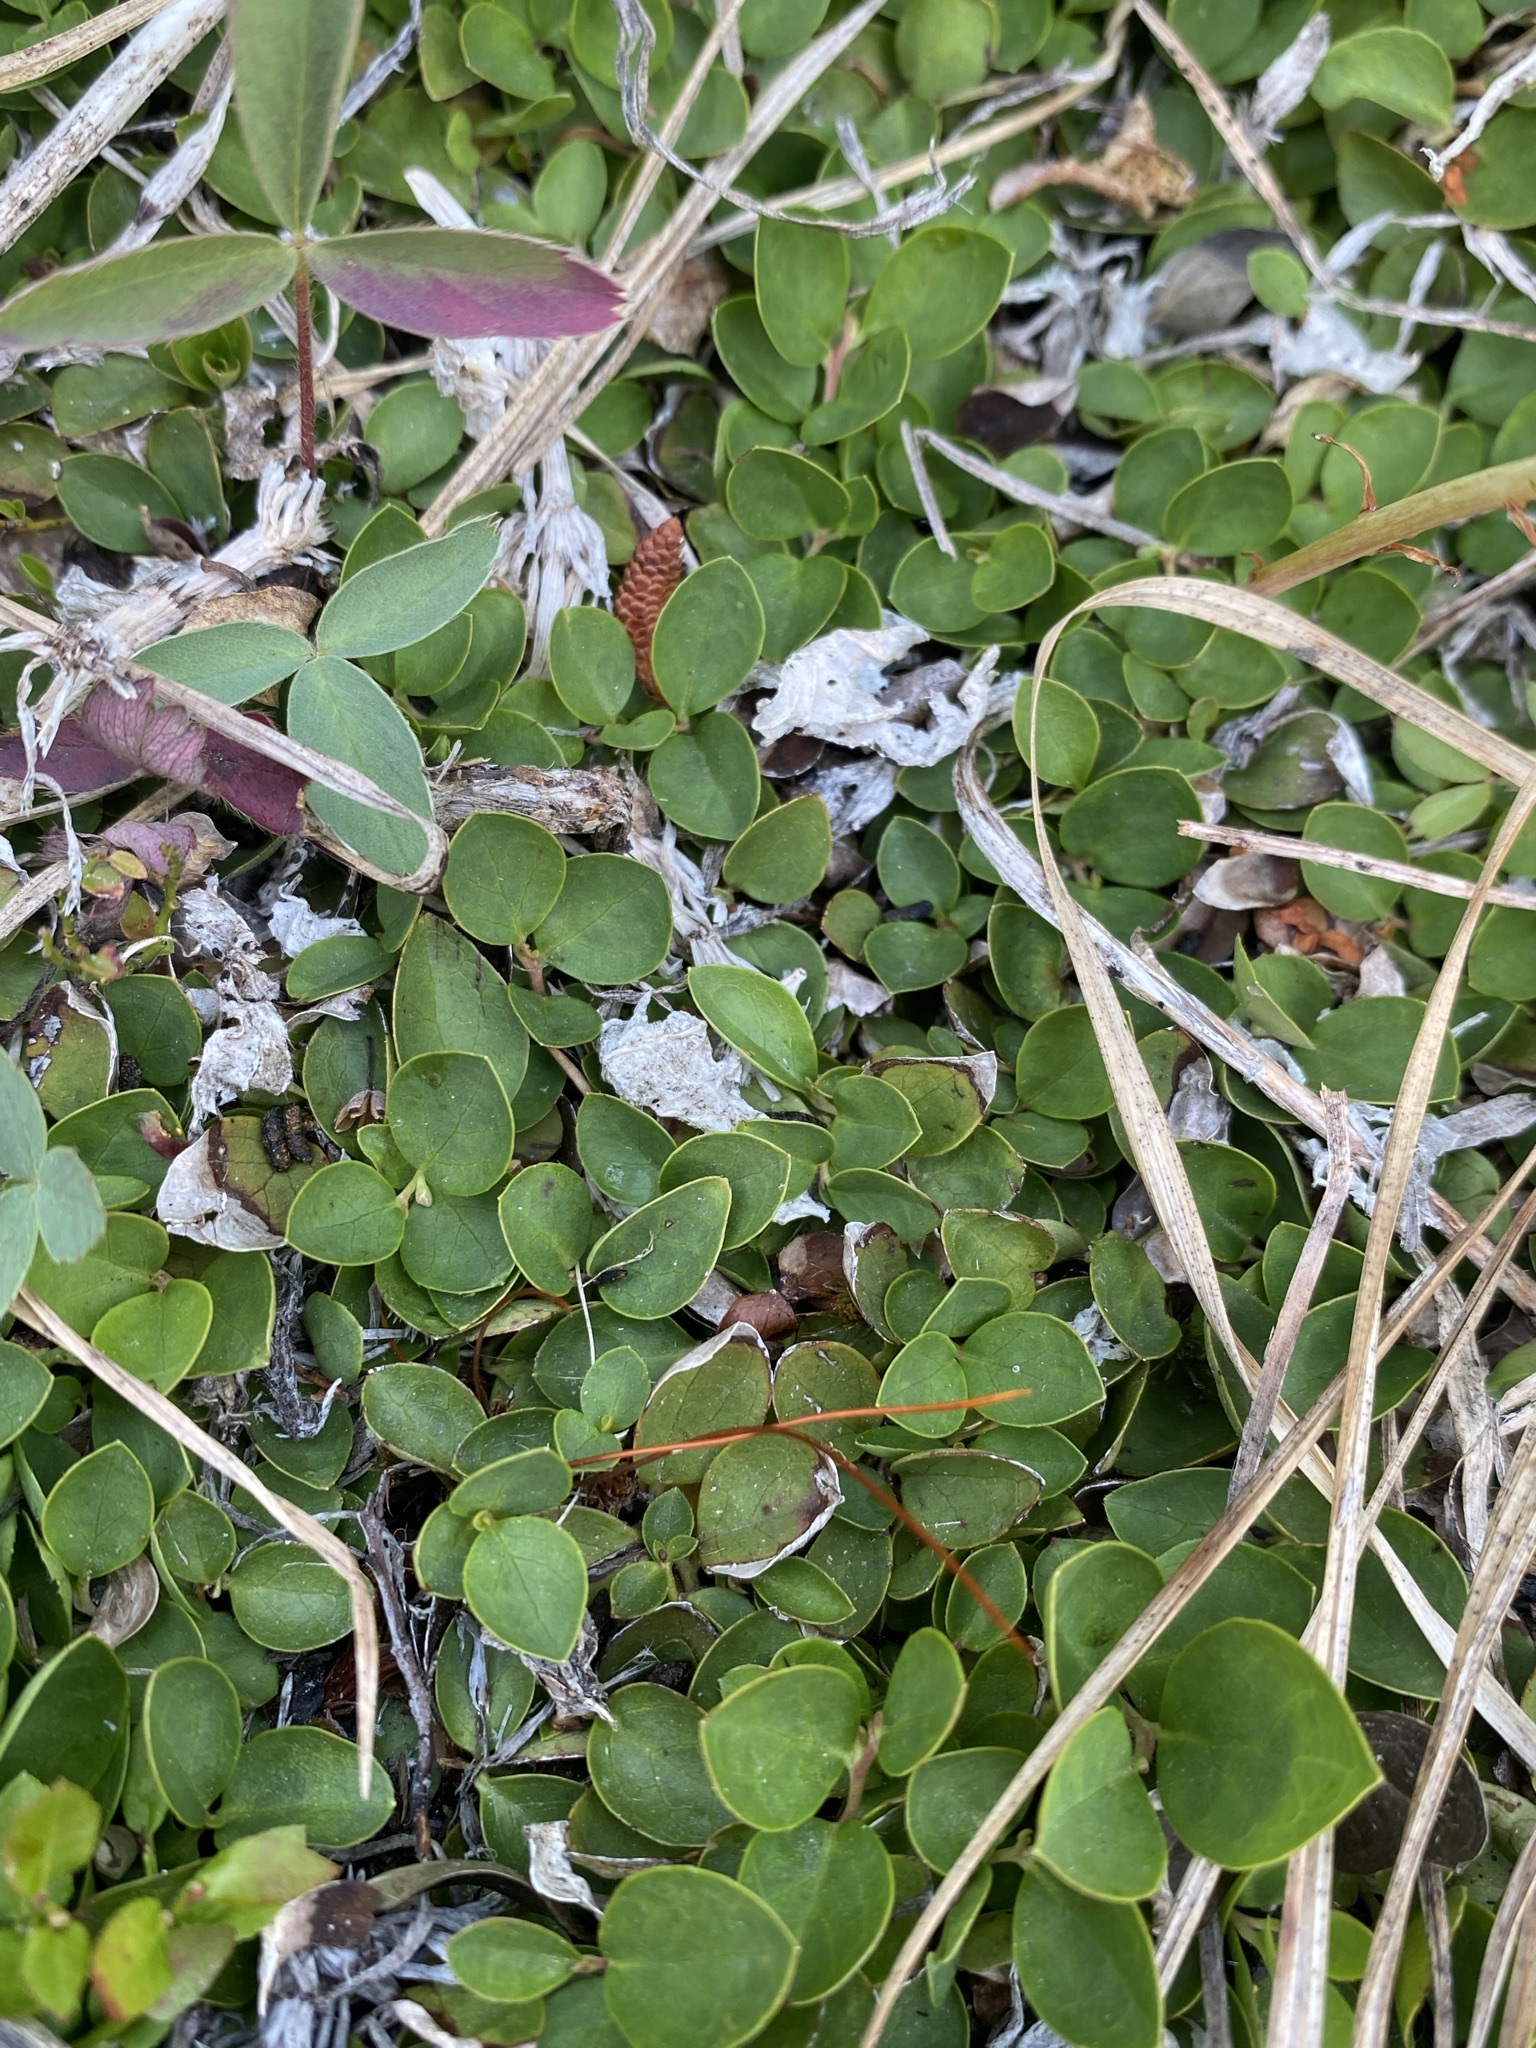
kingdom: Plantae
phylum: Tracheophyta
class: Magnoliopsida
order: Ericales
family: Ericaceae
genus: Gaultheria
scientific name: Gaultheria humifusa
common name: Alpine wintergreen
